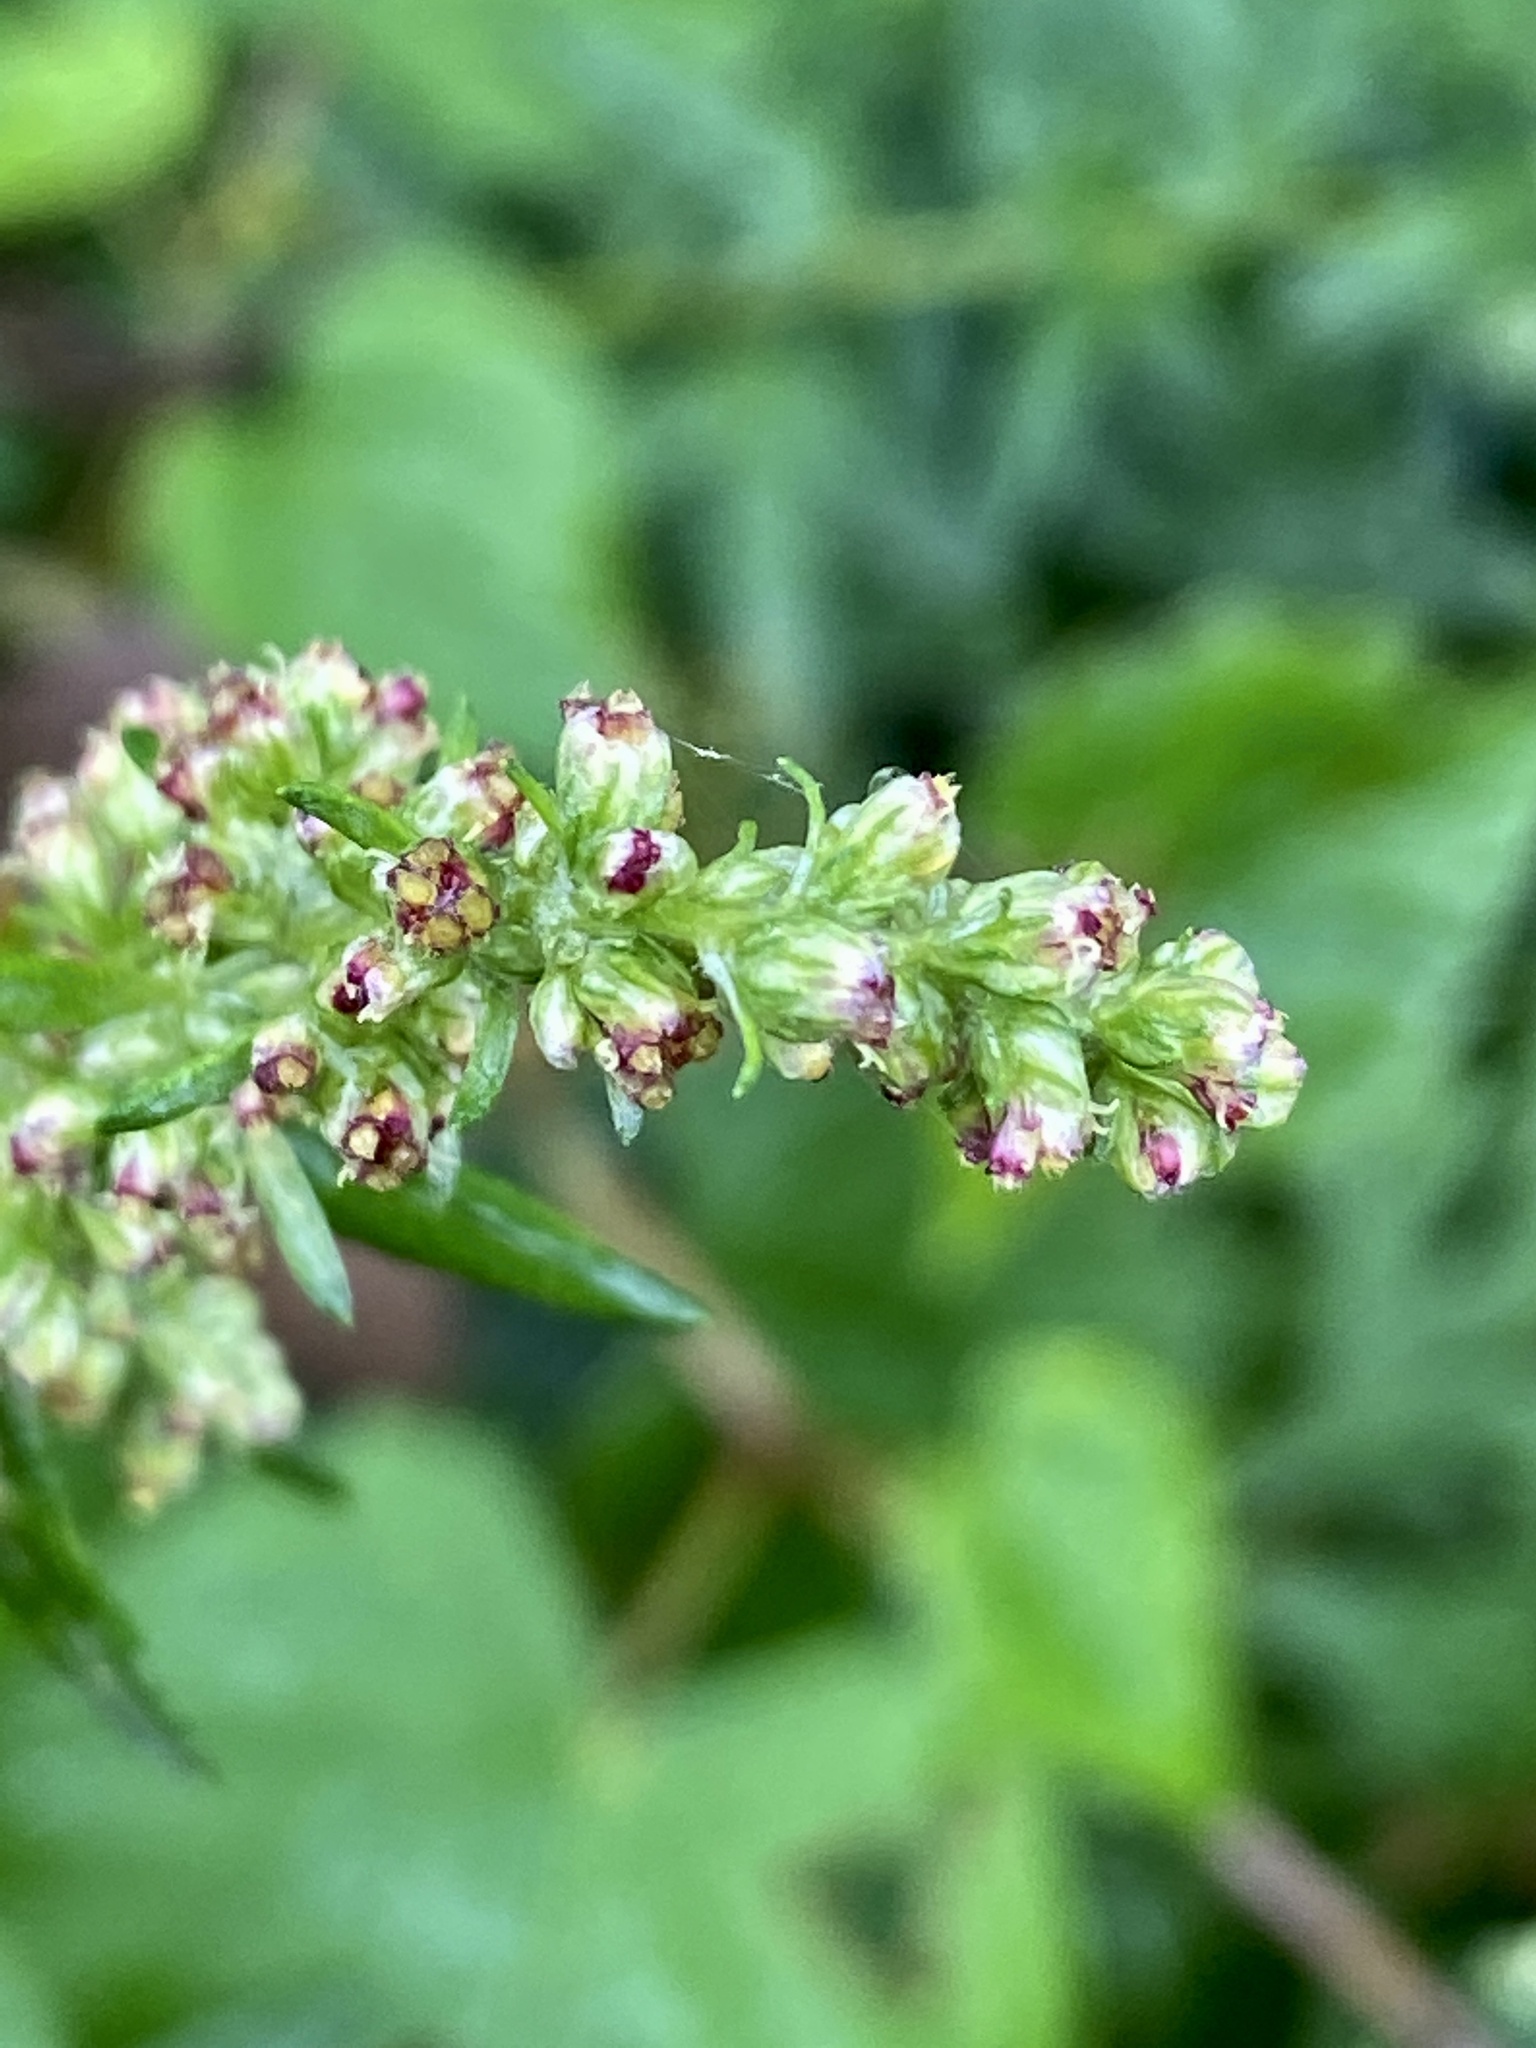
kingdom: Plantae
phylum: Tracheophyta
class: Magnoliopsida
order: Asterales
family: Asteraceae
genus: Artemisia
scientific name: Artemisia vulgaris
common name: Mugwort
